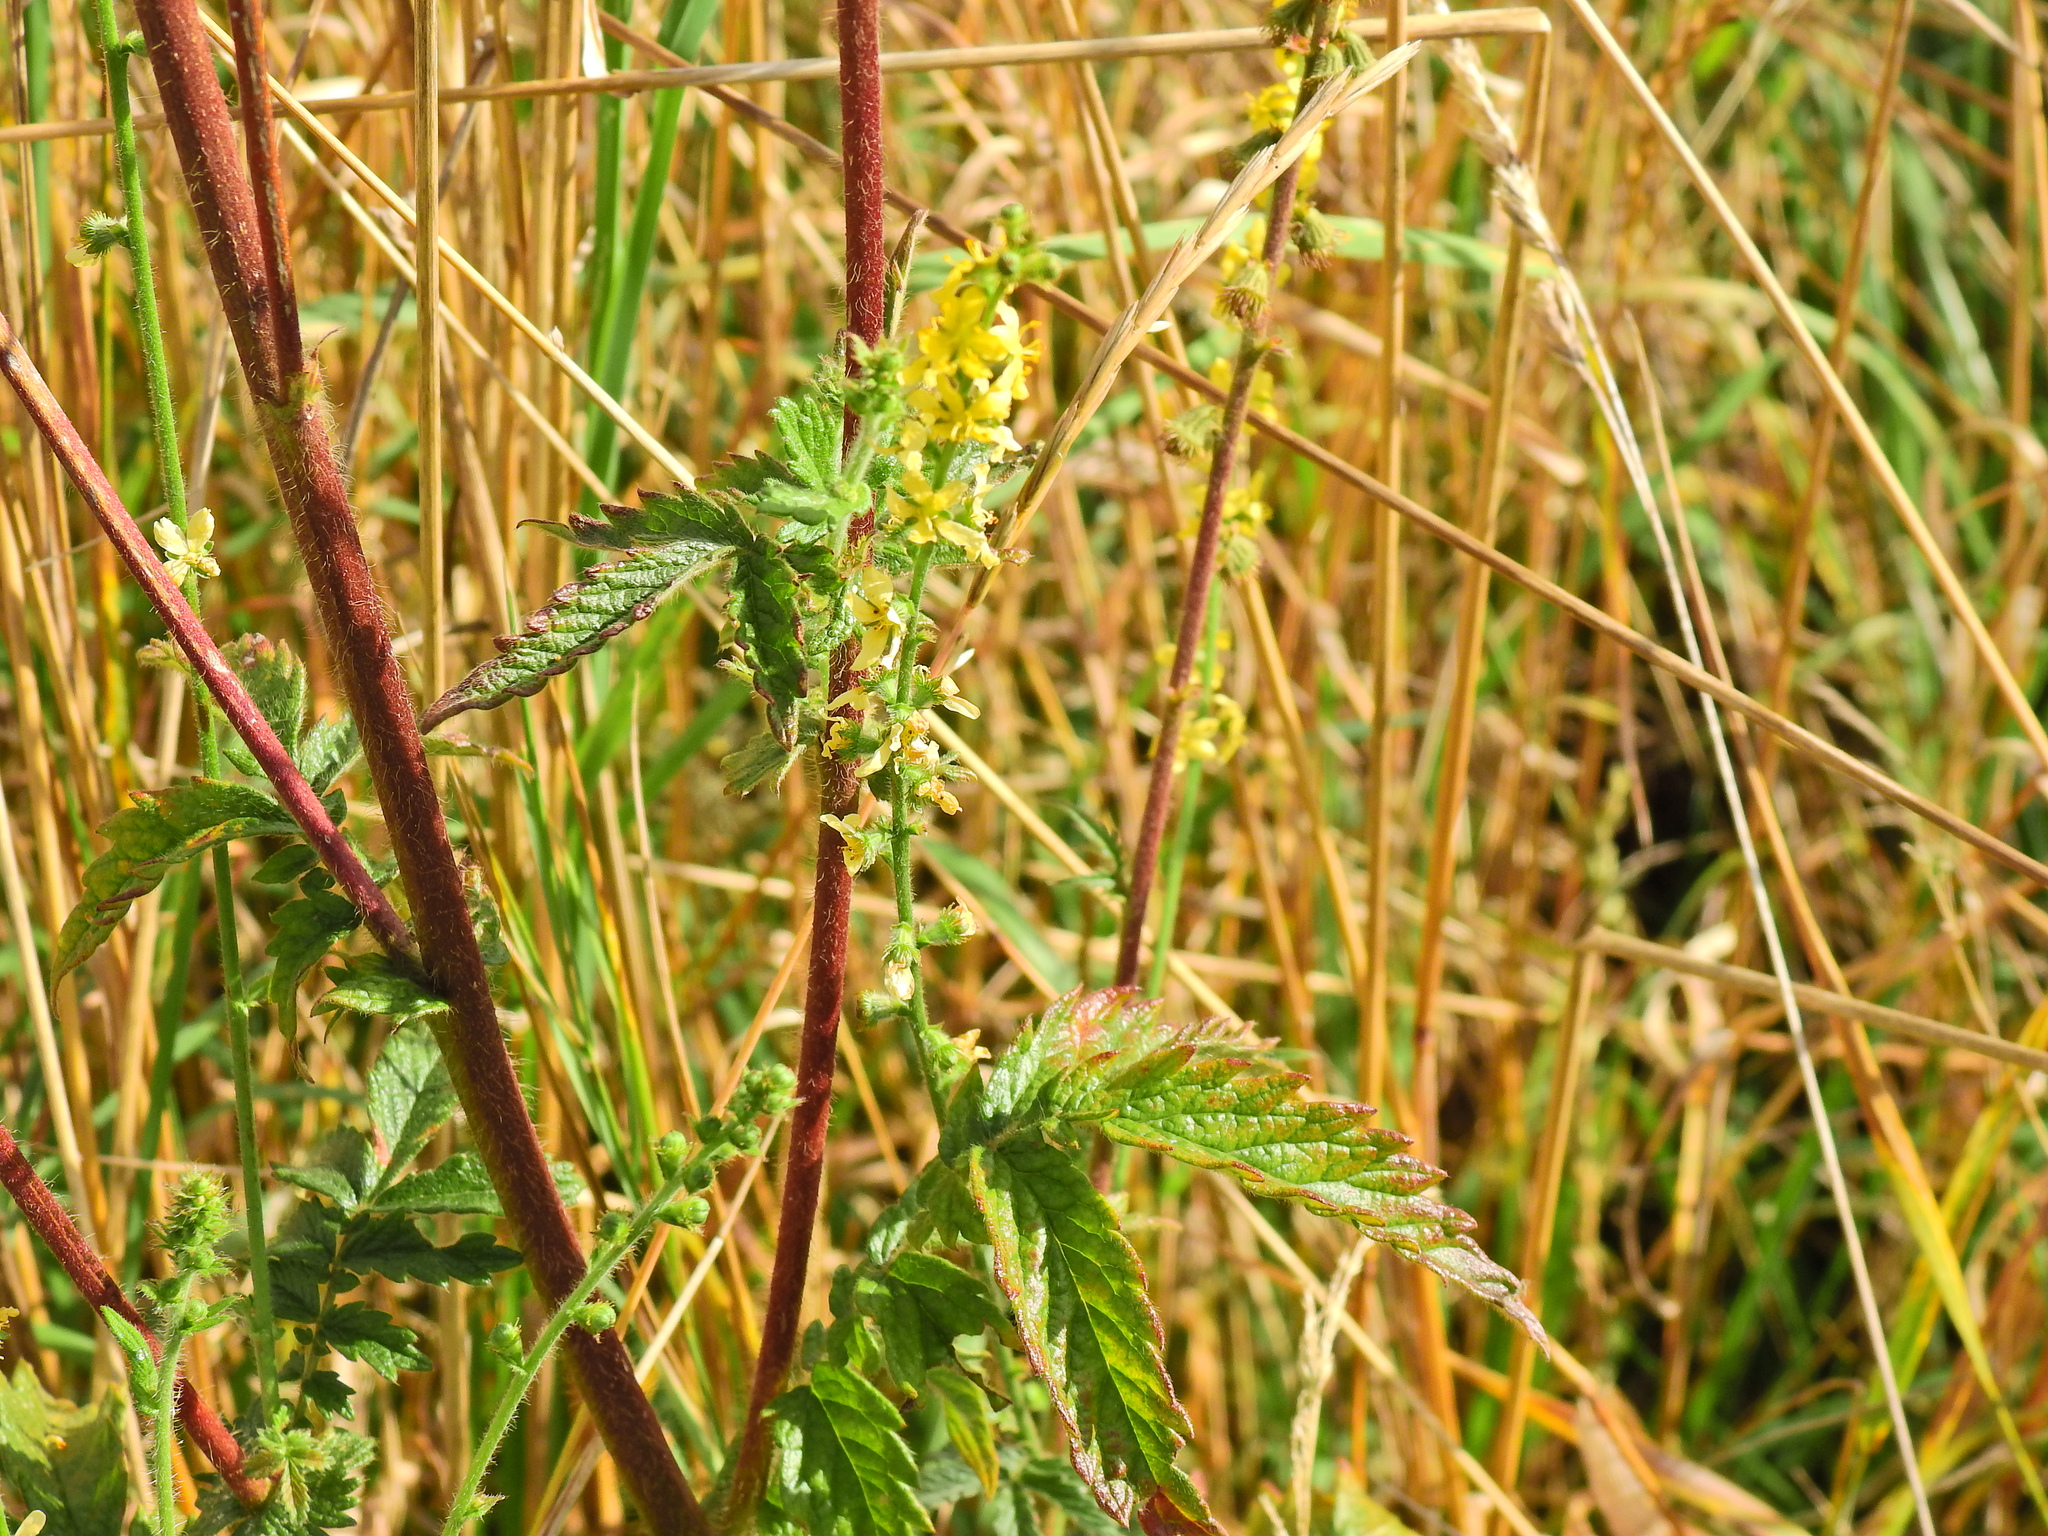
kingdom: Plantae
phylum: Tracheophyta
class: Magnoliopsida
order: Rosales
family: Rosaceae
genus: Agrimonia
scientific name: Agrimonia eupatoria
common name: Agrimony
